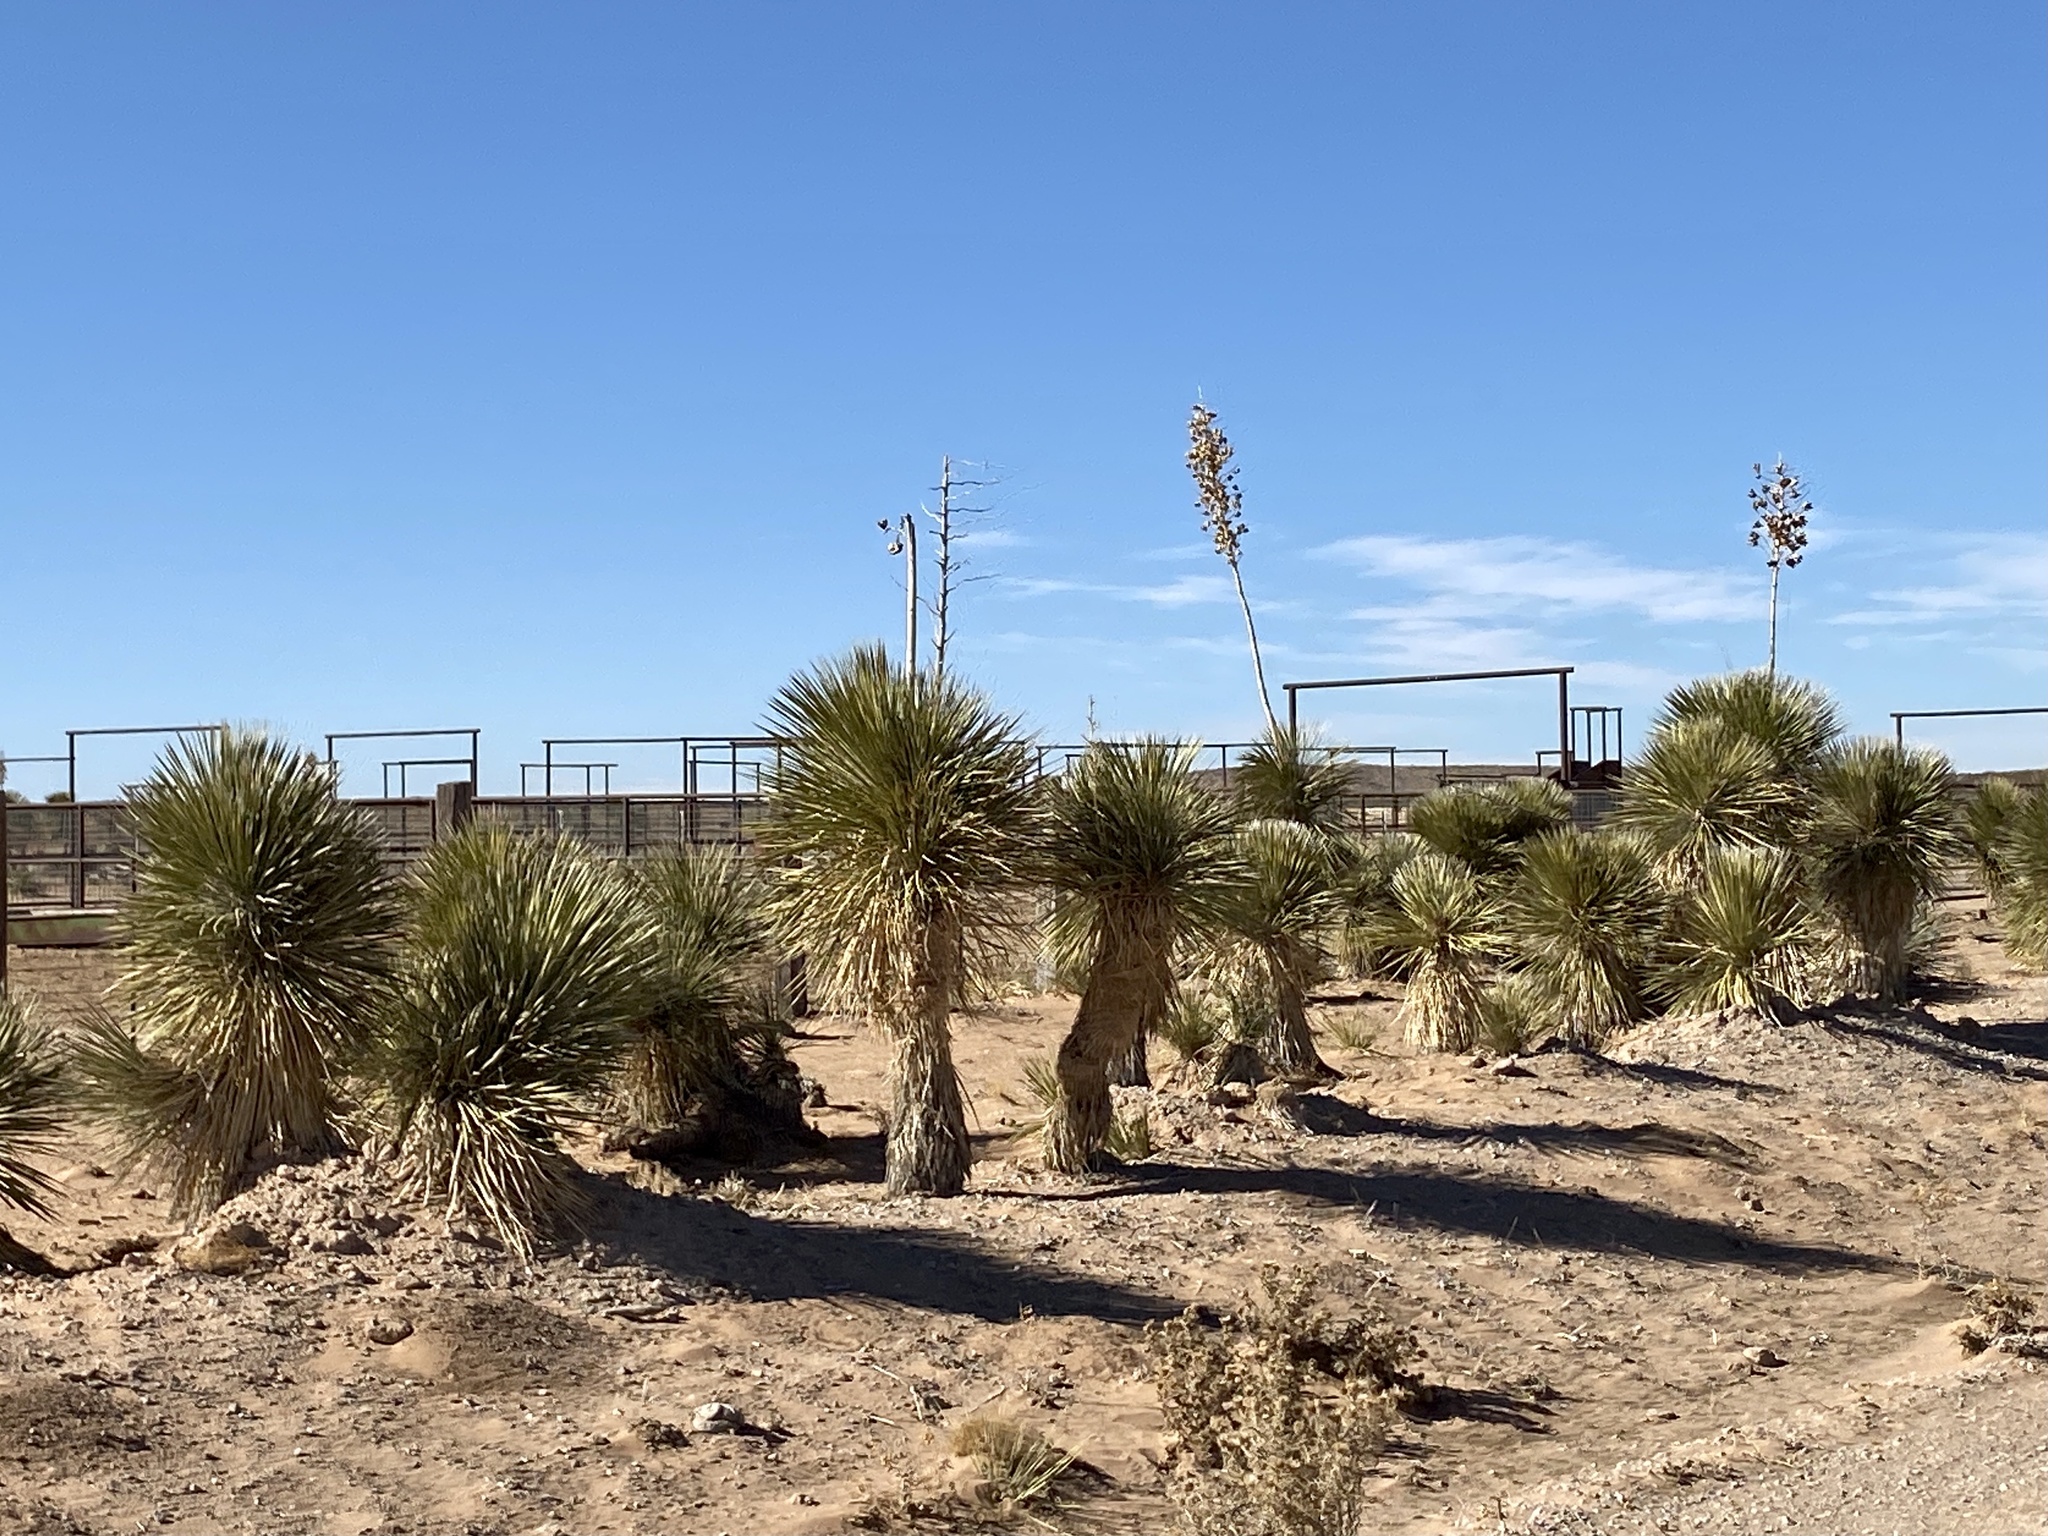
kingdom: Plantae
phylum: Tracheophyta
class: Liliopsida
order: Asparagales
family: Asparagaceae
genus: Yucca
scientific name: Yucca elata
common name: Palmella
